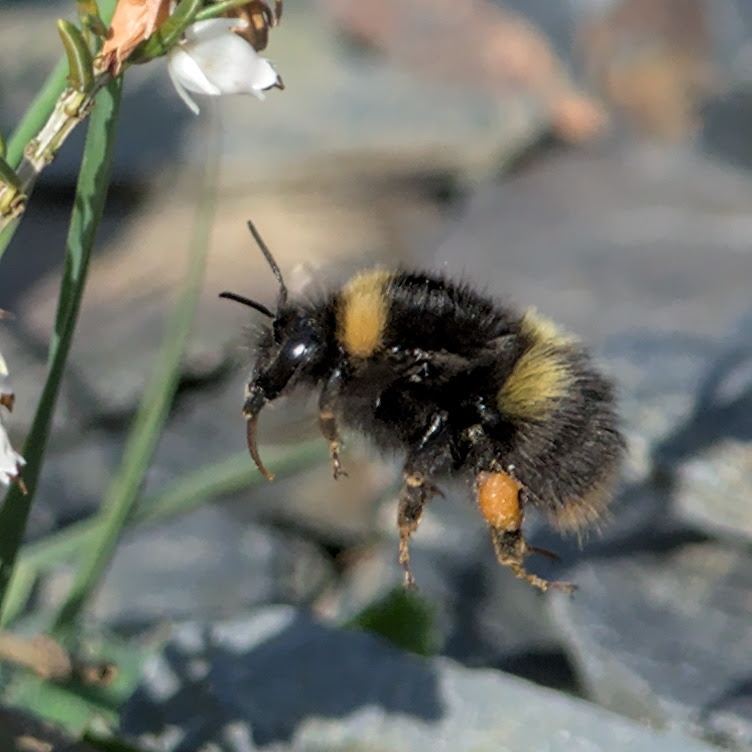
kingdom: Animalia
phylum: Arthropoda
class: Insecta
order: Hymenoptera
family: Apidae
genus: Bombus
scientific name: Bombus pratorum
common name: Early humble-bee
